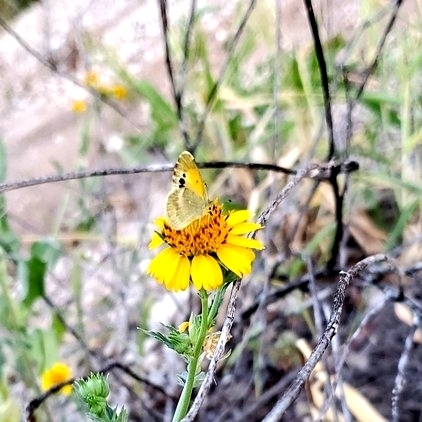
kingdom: Animalia
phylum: Arthropoda
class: Insecta
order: Lepidoptera
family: Pieridae
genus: Nathalis
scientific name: Nathalis iole
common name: Dainty sulphur
